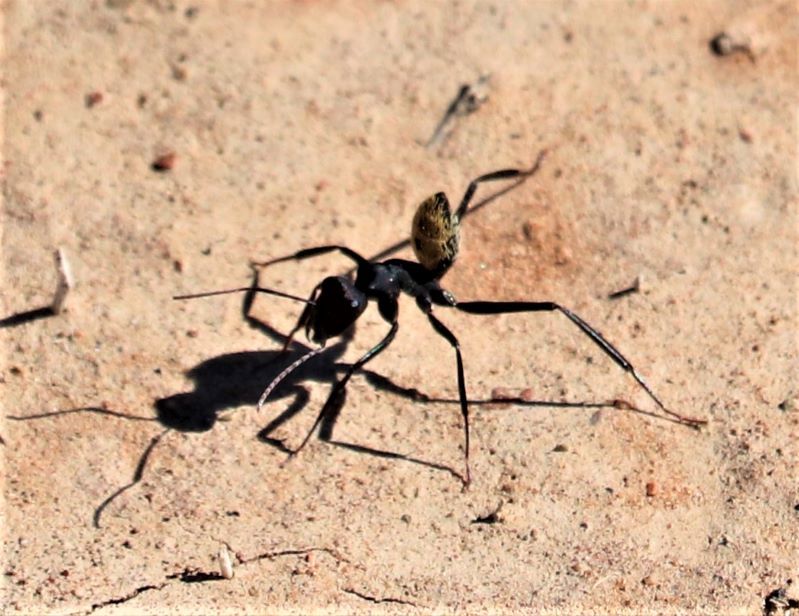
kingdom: Animalia
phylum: Arthropoda
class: Insecta
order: Hymenoptera
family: Formicidae
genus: Camponotus
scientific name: Camponotus fulvopilosus
